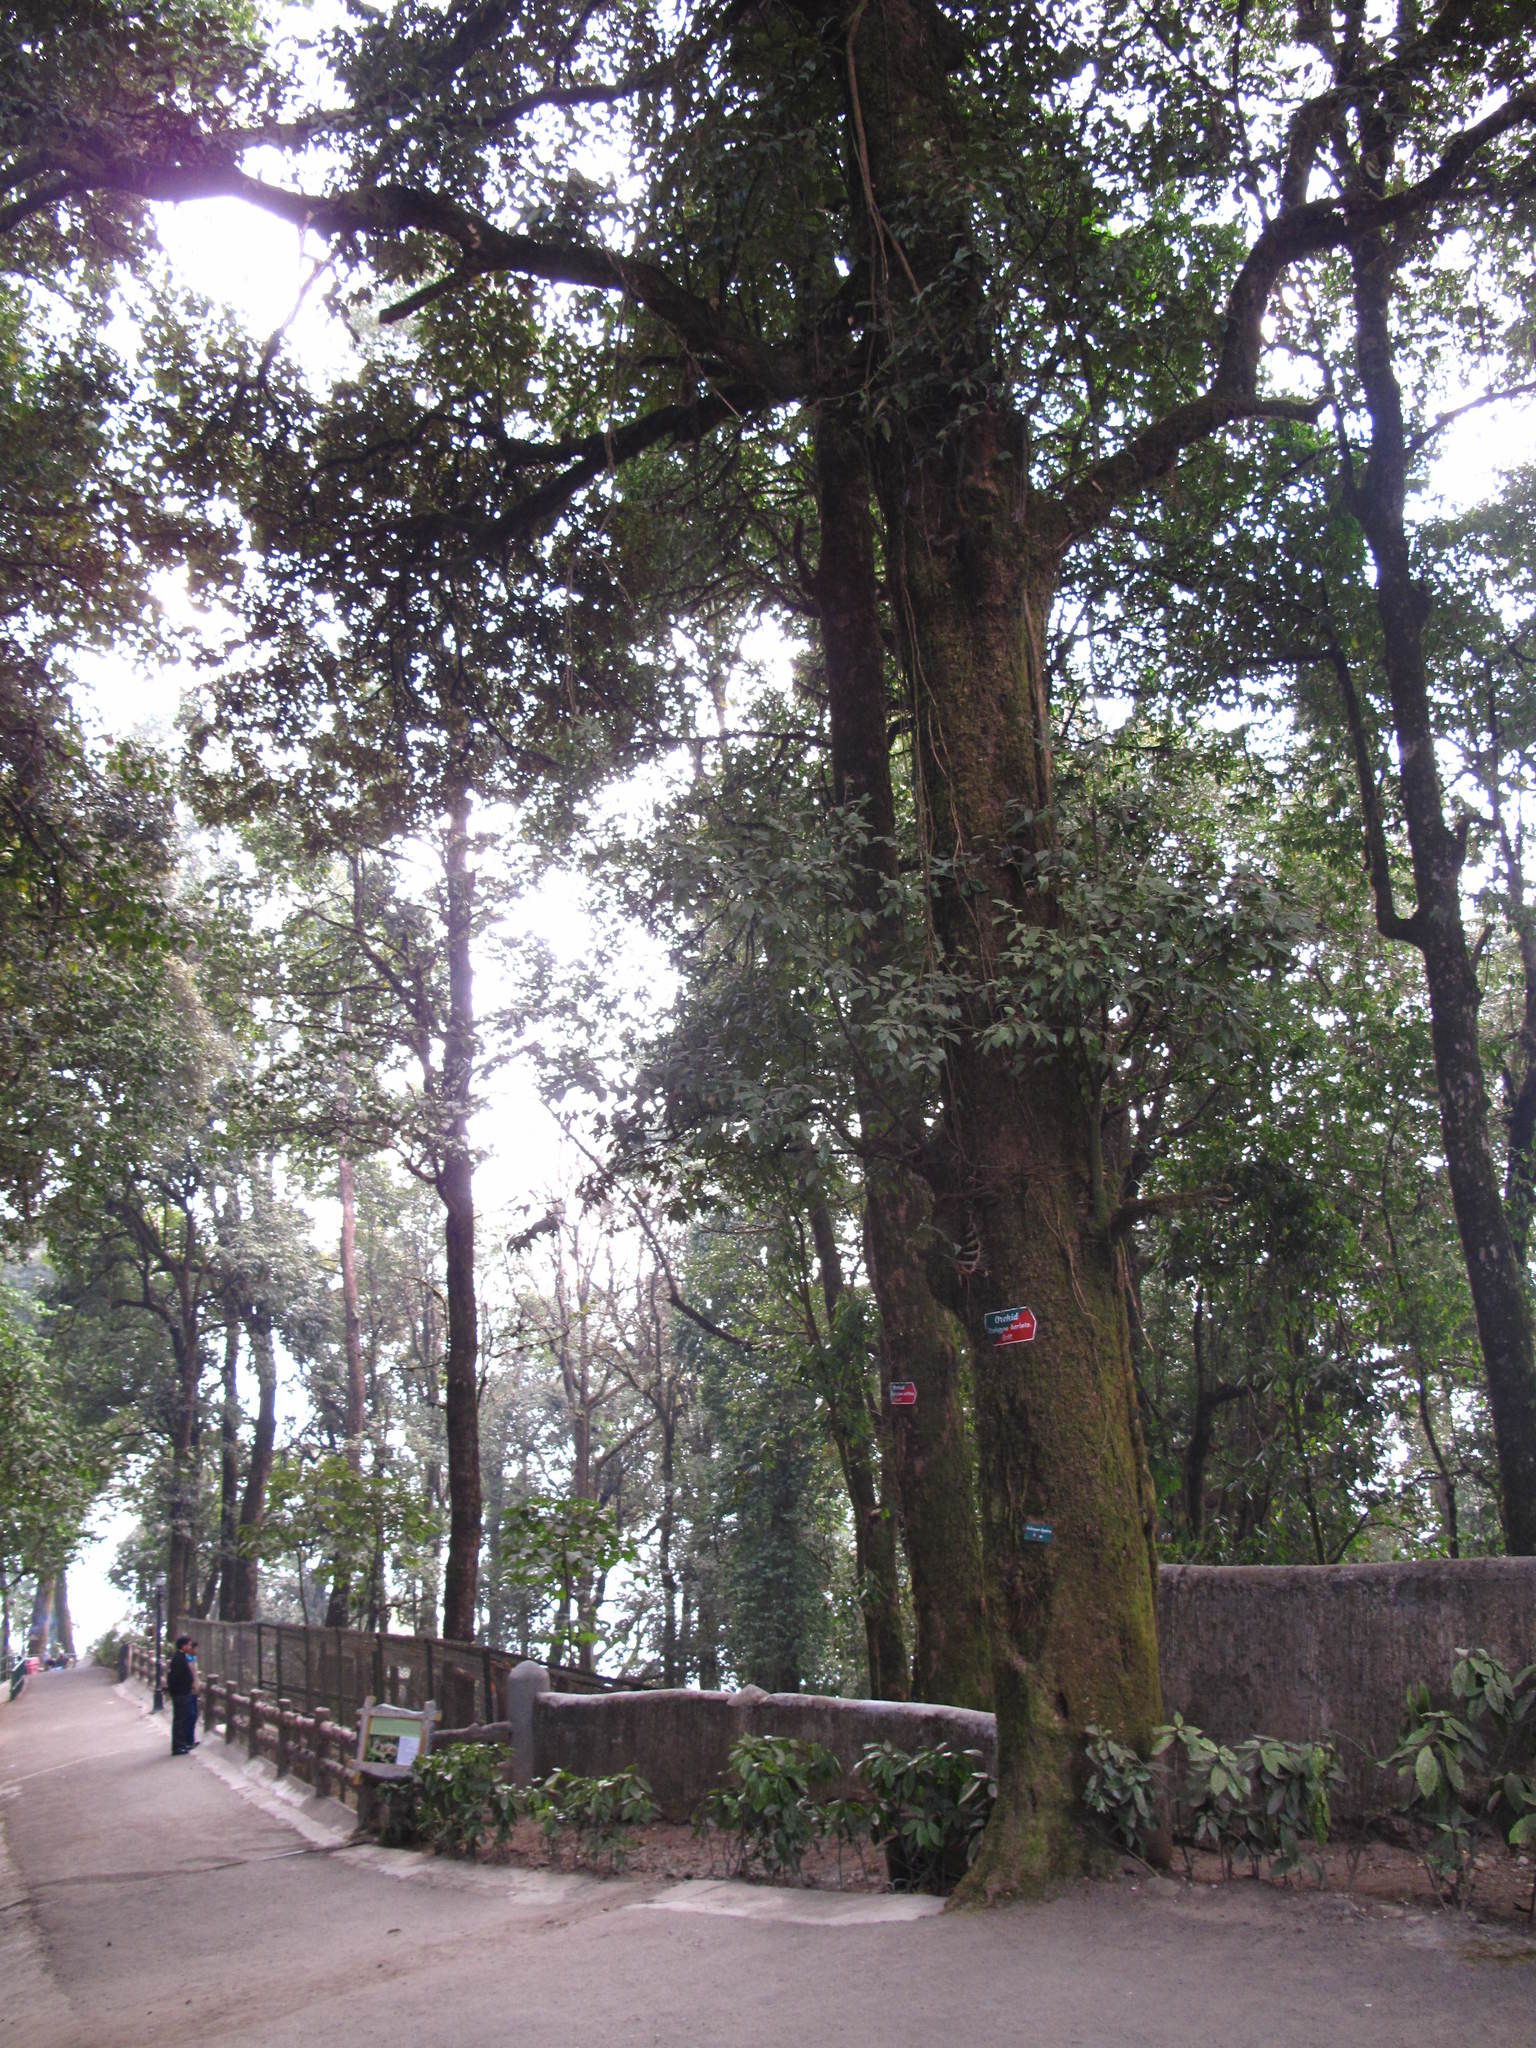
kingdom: Plantae
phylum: Tracheophyta
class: Magnoliopsida
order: Fagales
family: Fagaceae
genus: Castanopsis
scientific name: Castanopsis hystrix
